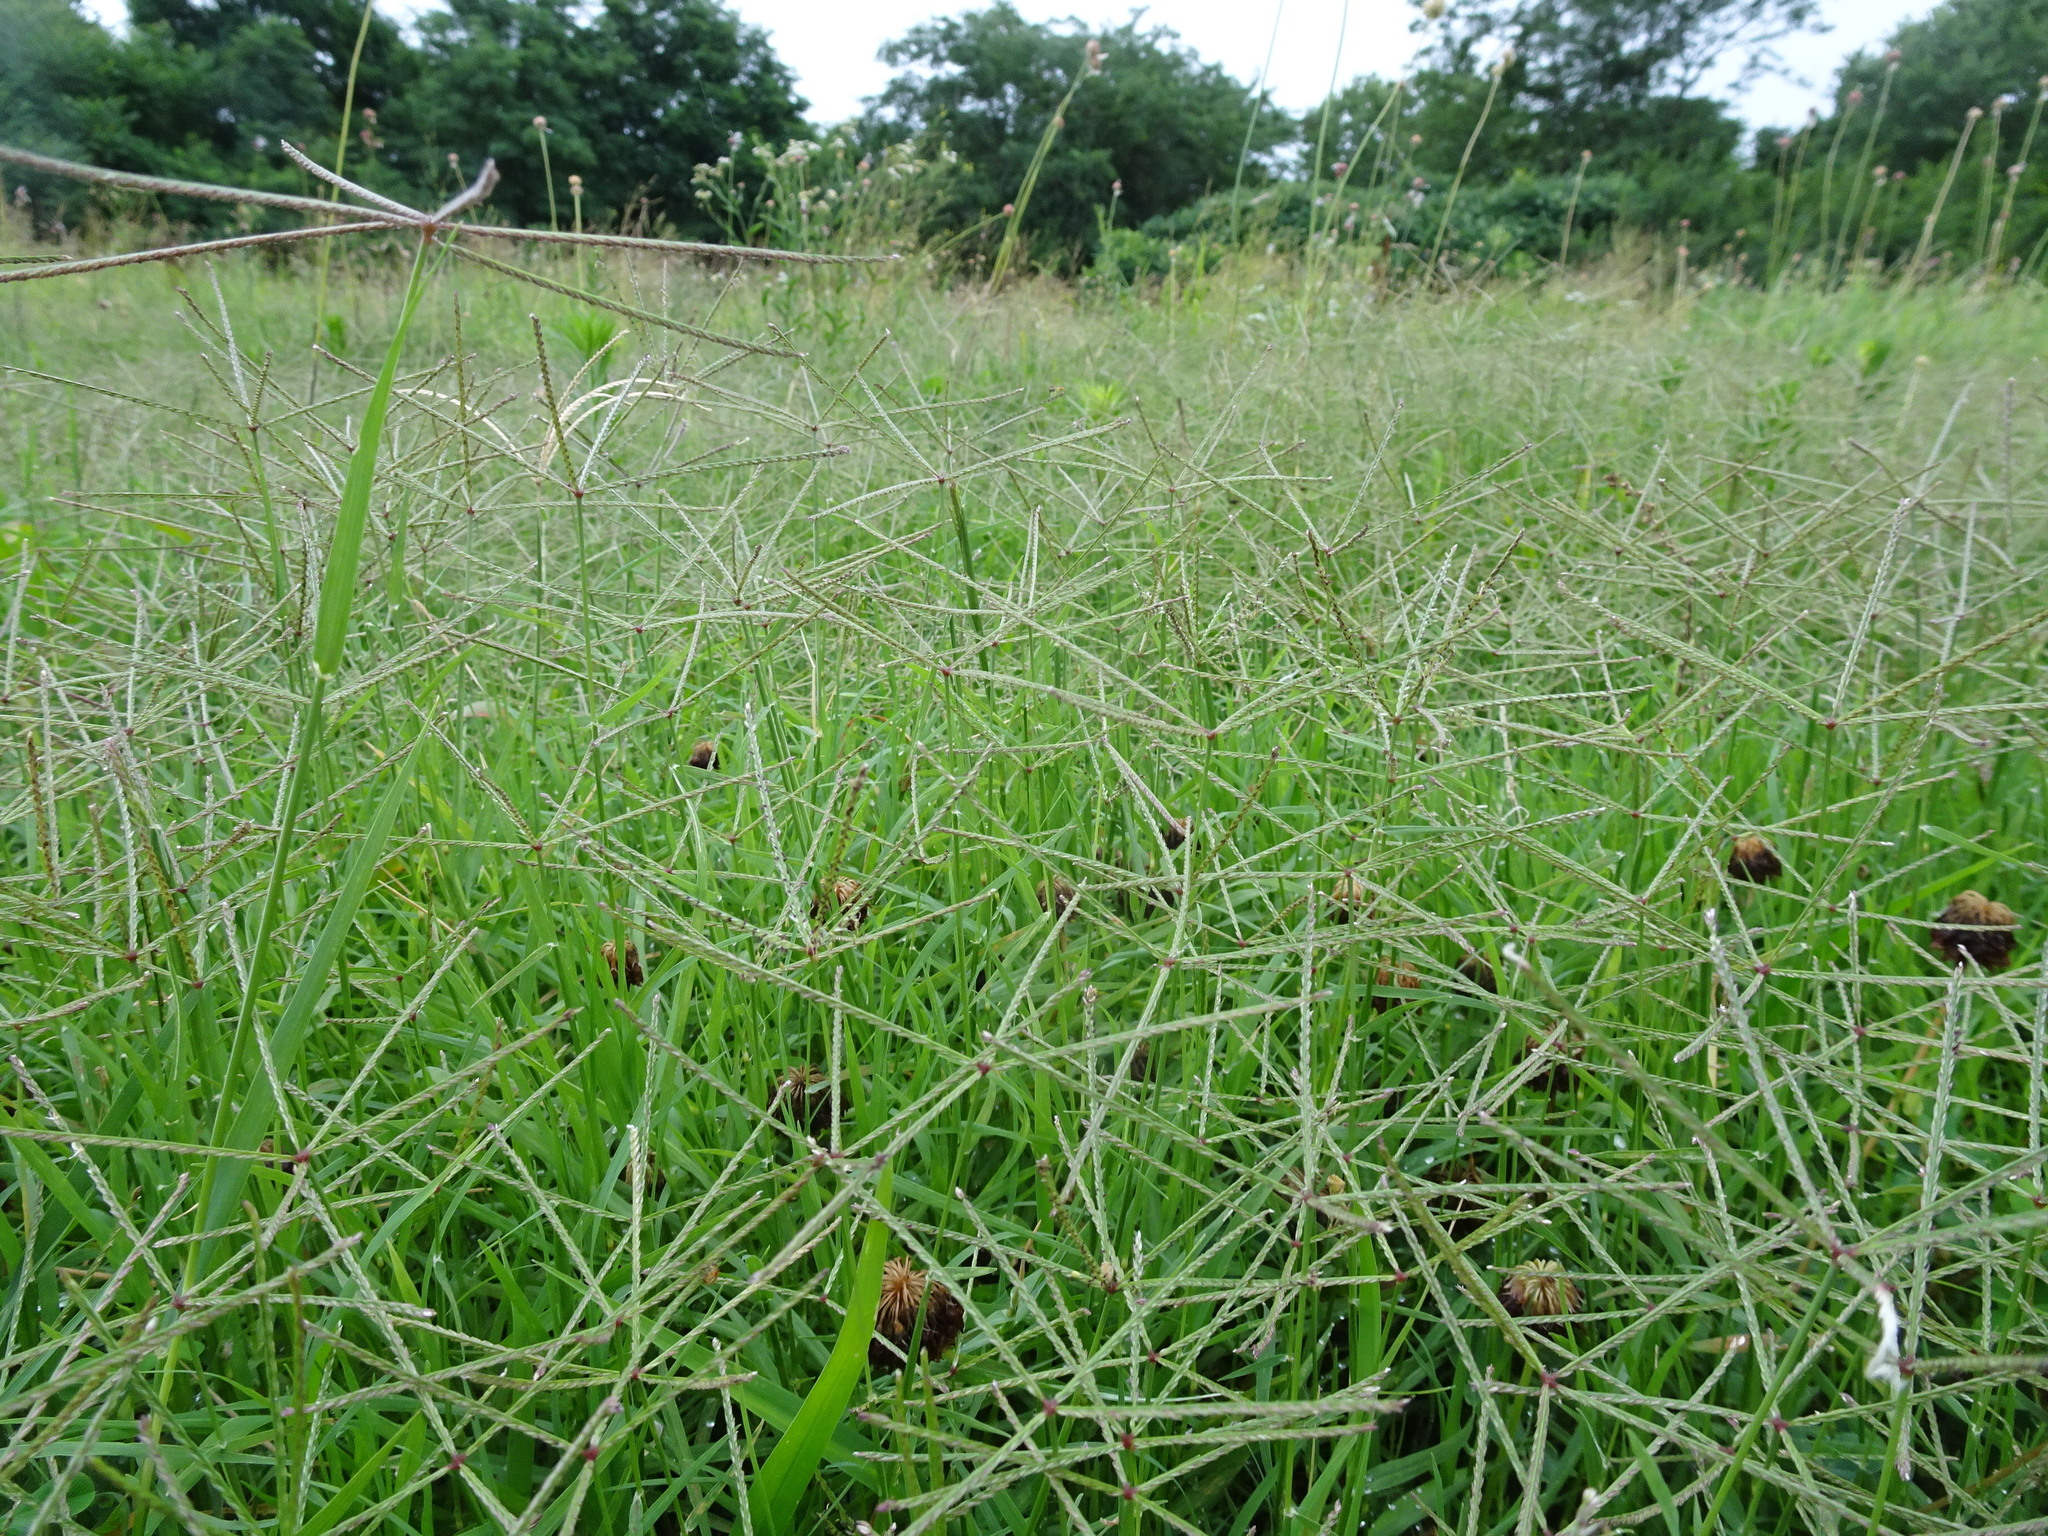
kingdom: Plantae
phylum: Tracheophyta
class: Liliopsida
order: Poales
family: Poaceae
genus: Cynodon
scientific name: Cynodon dactylon
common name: Bermuda grass
